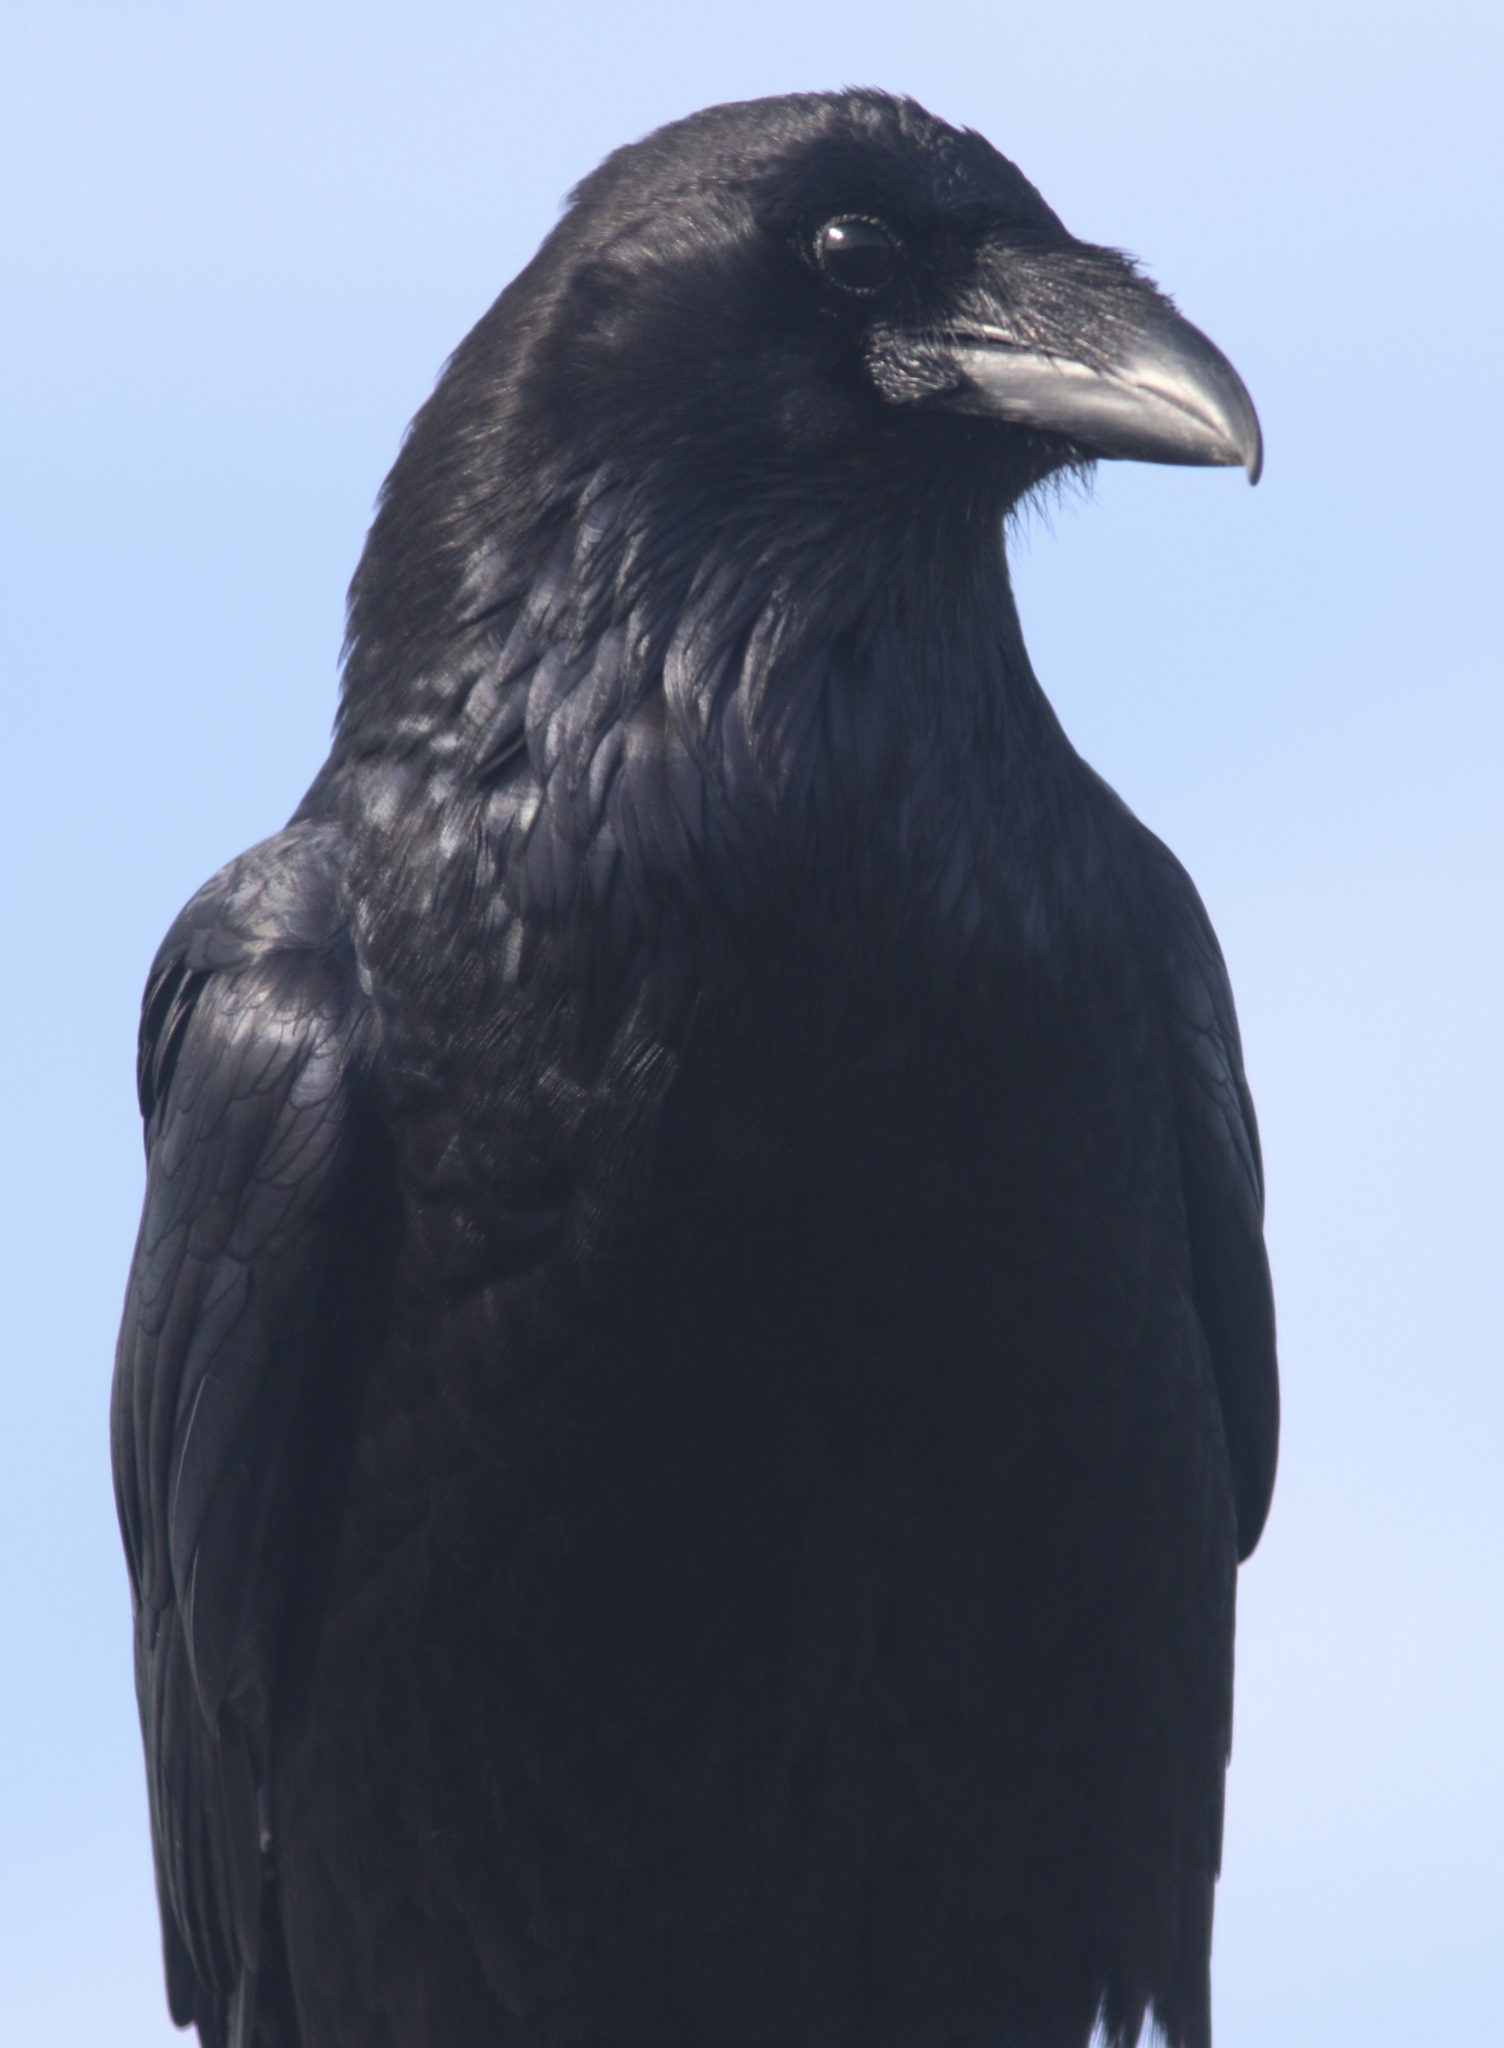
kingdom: Animalia
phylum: Chordata
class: Aves
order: Passeriformes
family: Corvidae
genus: Corvus
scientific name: Corvus corax
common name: Common raven
